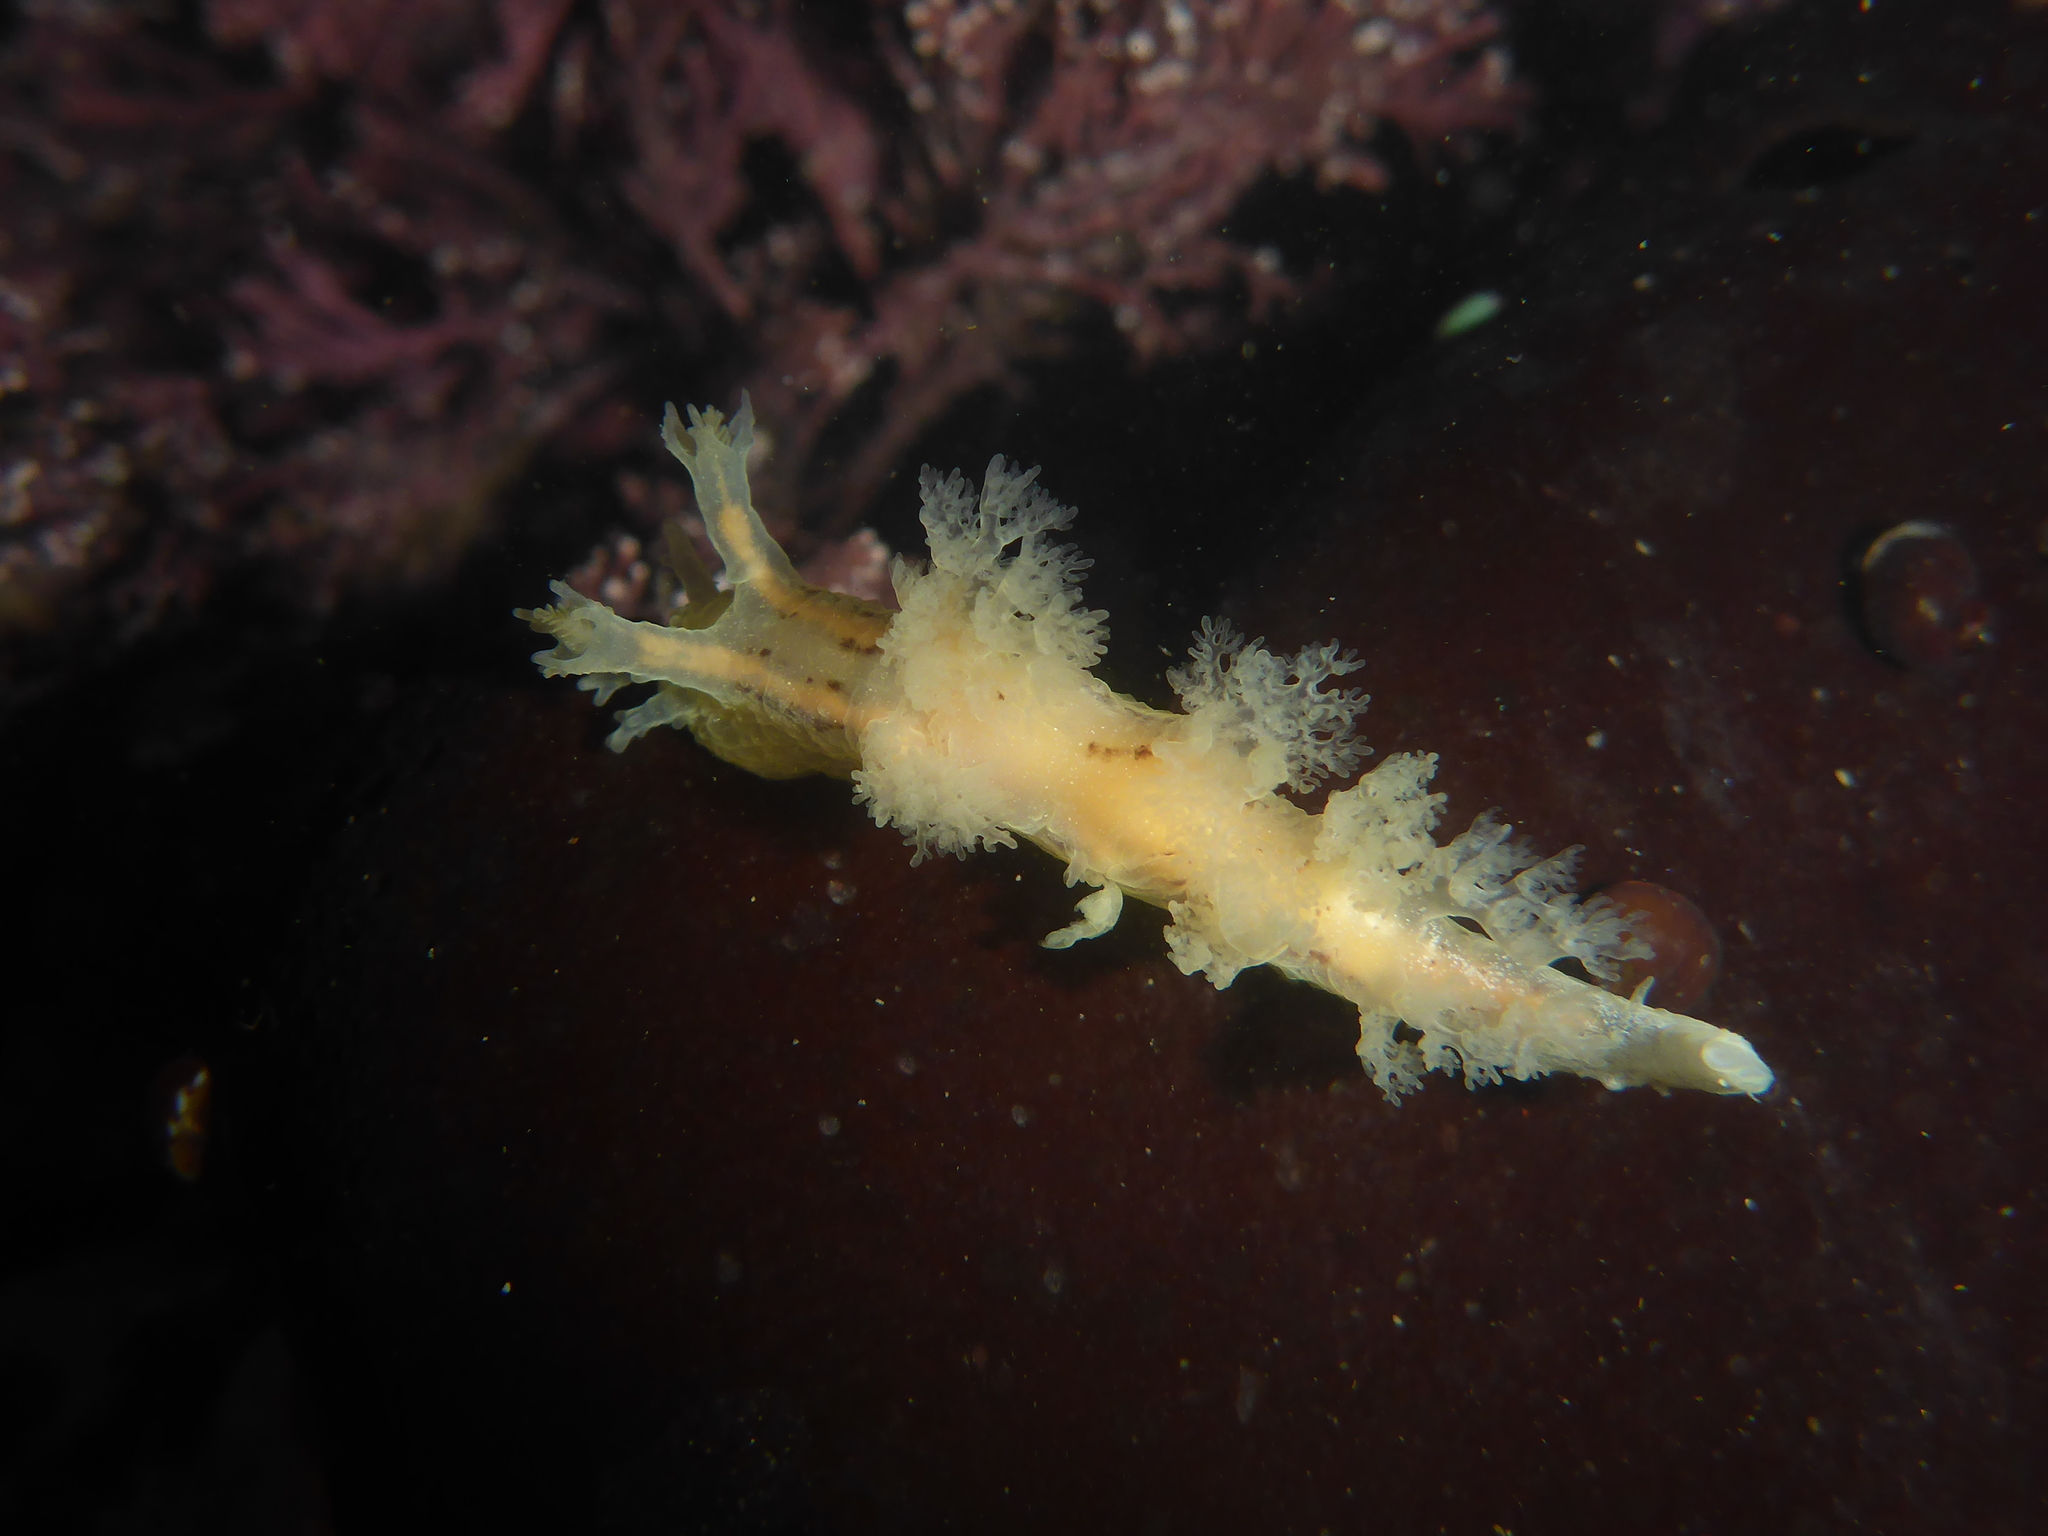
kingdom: Animalia
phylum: Mollusca
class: Gastropoda
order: Nudibranchia
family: Dendronotidae
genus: Dendronotus
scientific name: Dendronotus subramosus
